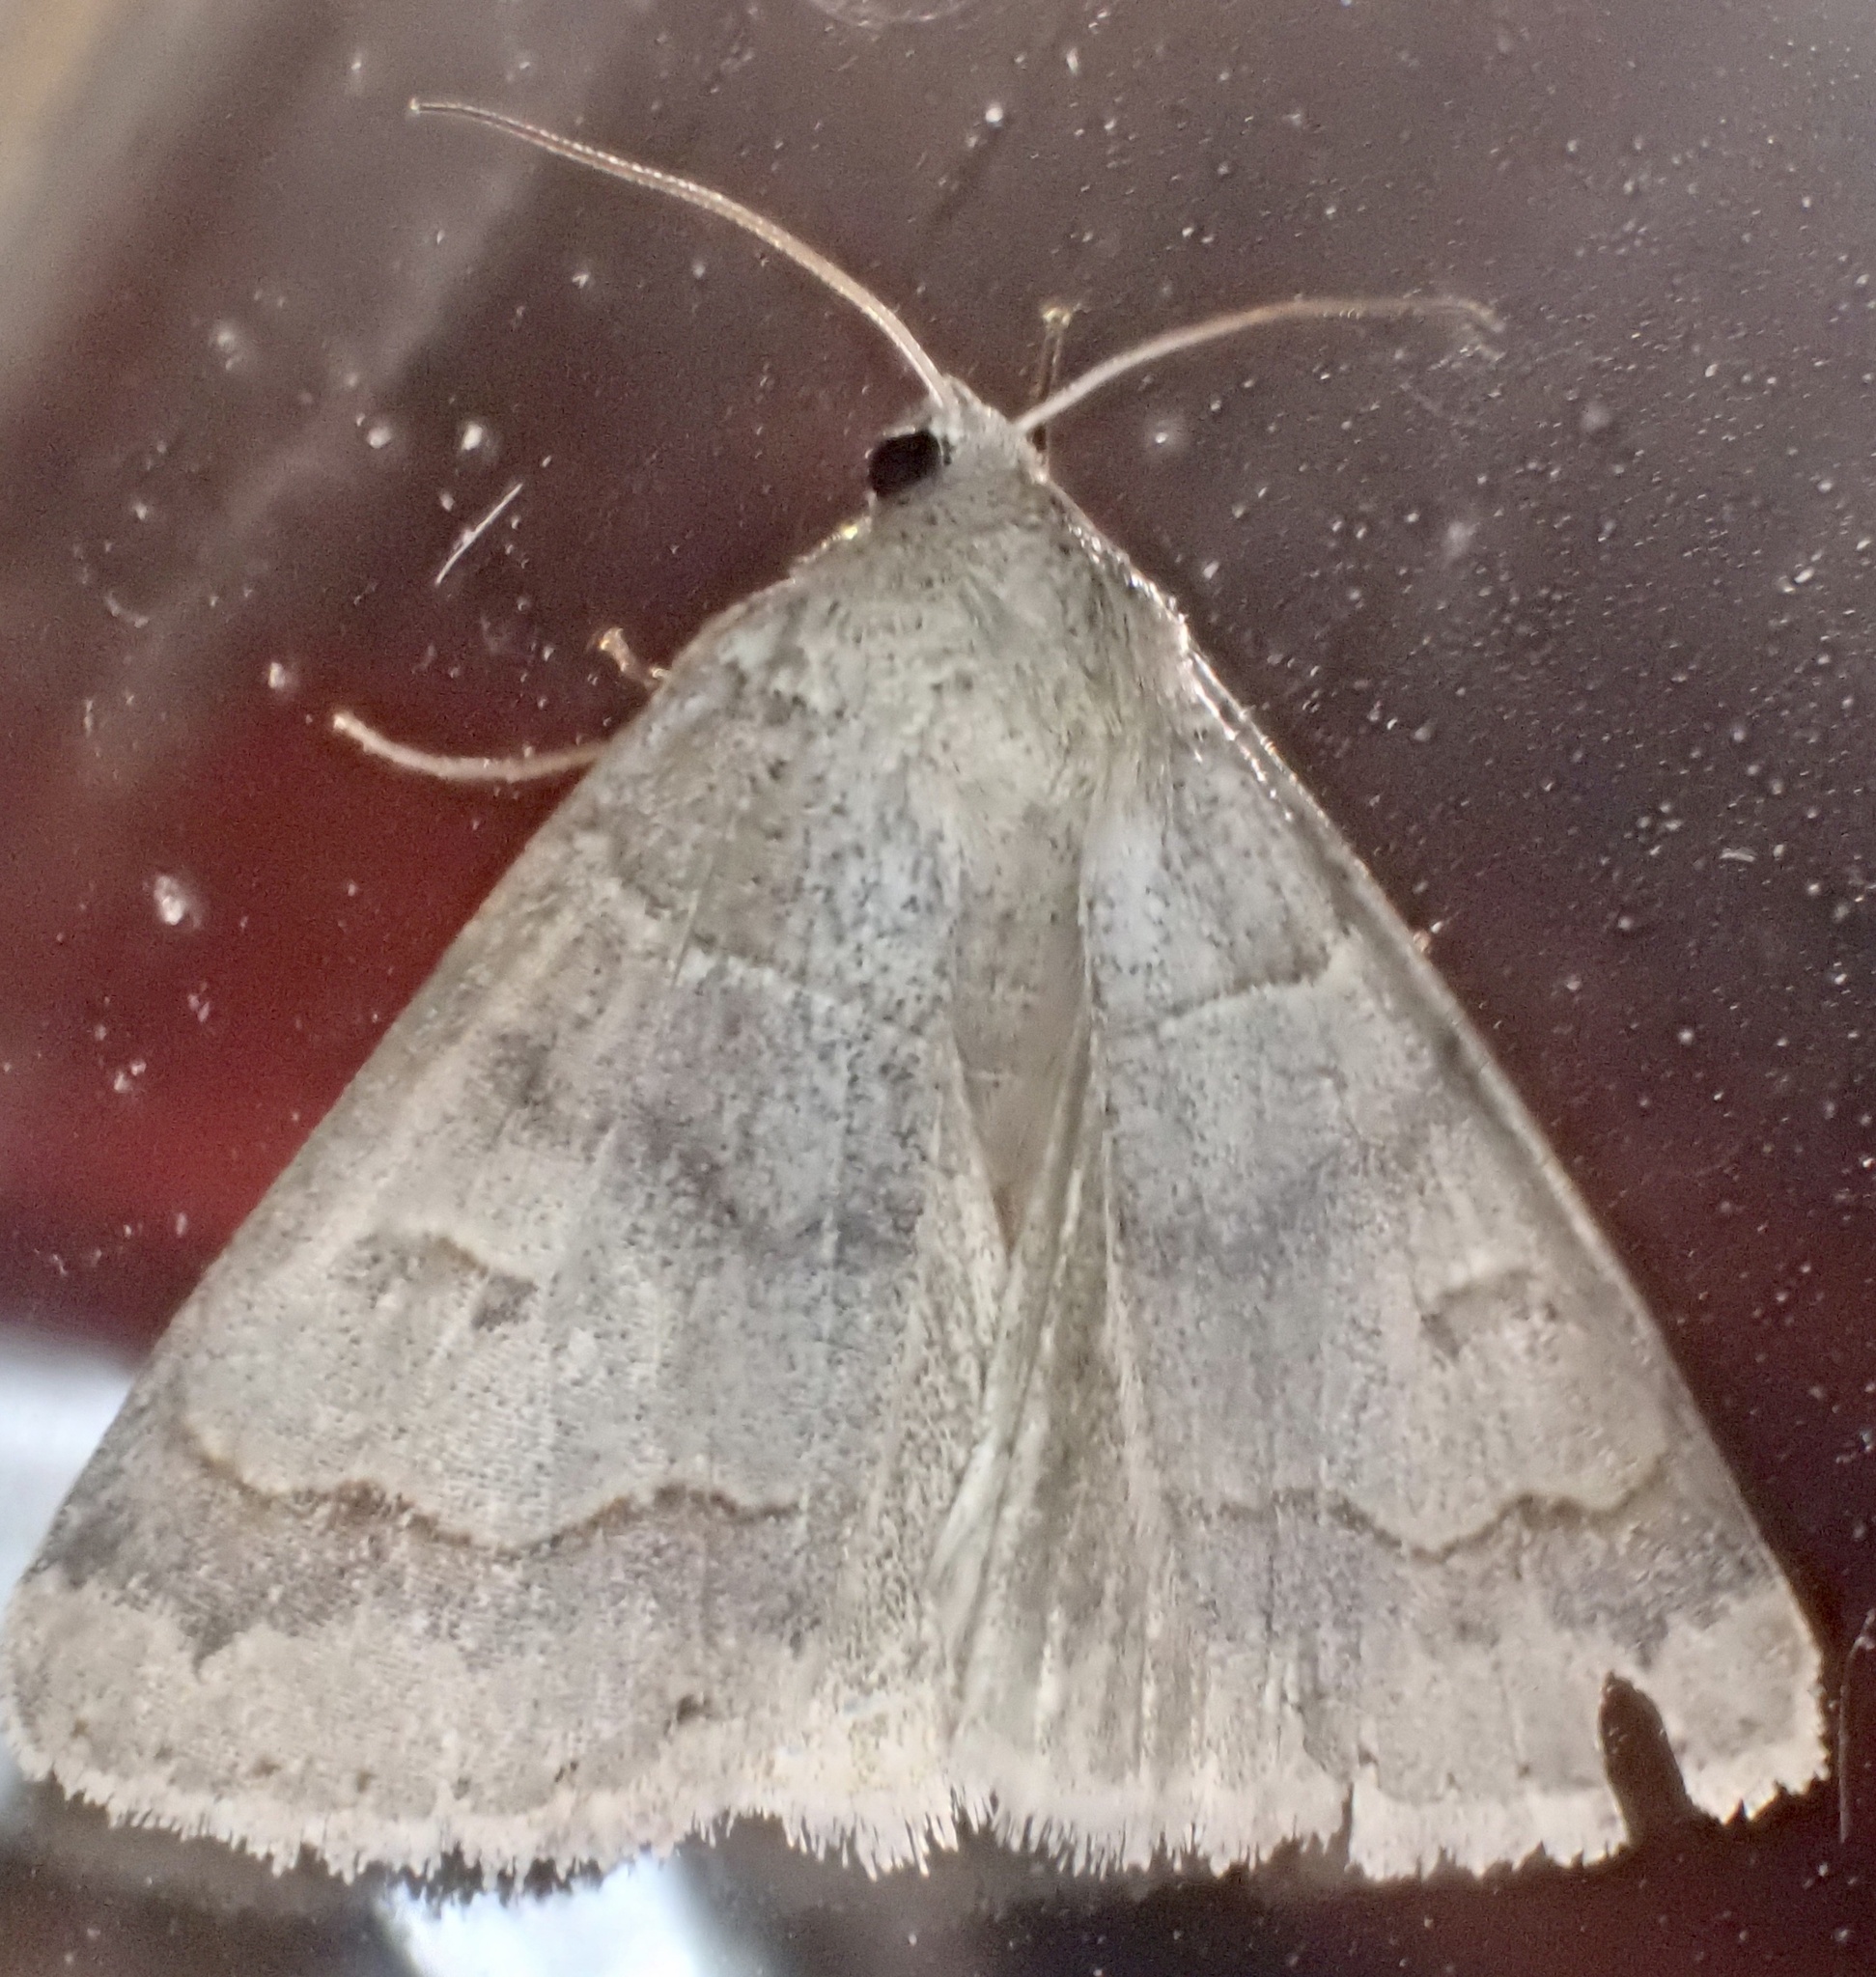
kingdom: Animalia
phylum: Arthropoda
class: Insecta
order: Lepidoptera
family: Erebidae
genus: Phoberia
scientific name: Phoberia atomaris
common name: Common oak moth
